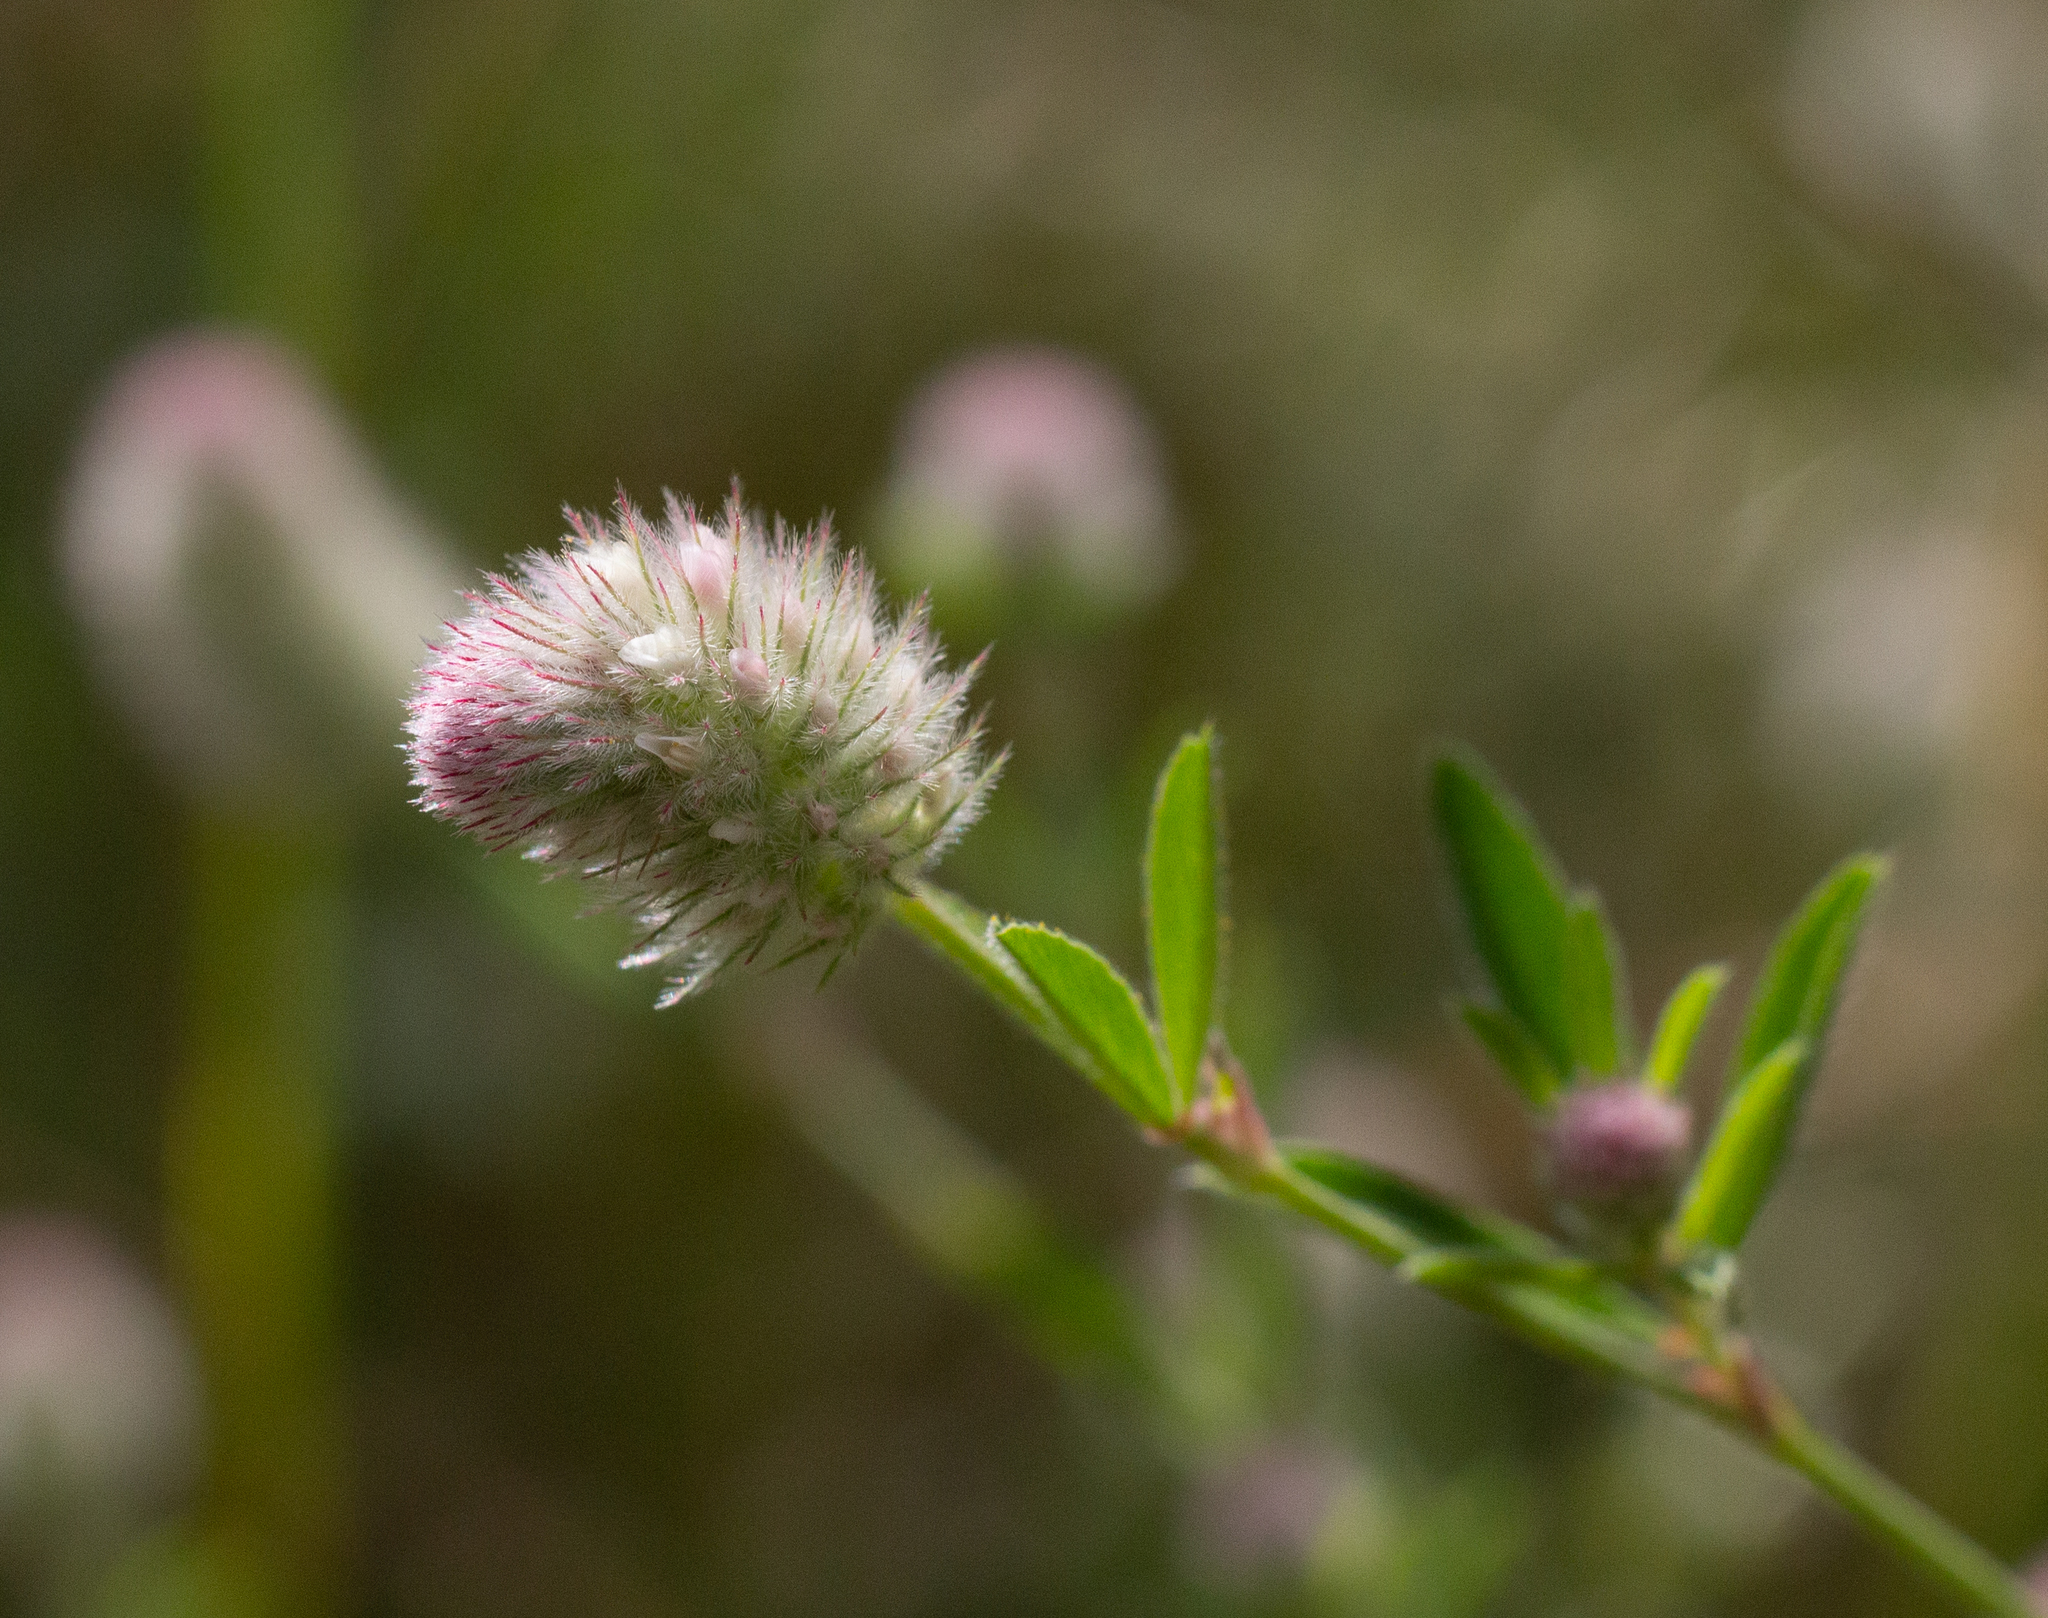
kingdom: Plantae
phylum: Tracheophyta
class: Magnoliopsida
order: Fabales
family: Fabaceae
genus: Trifolium
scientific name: Trifolium arvense
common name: Hare's-foot clover
